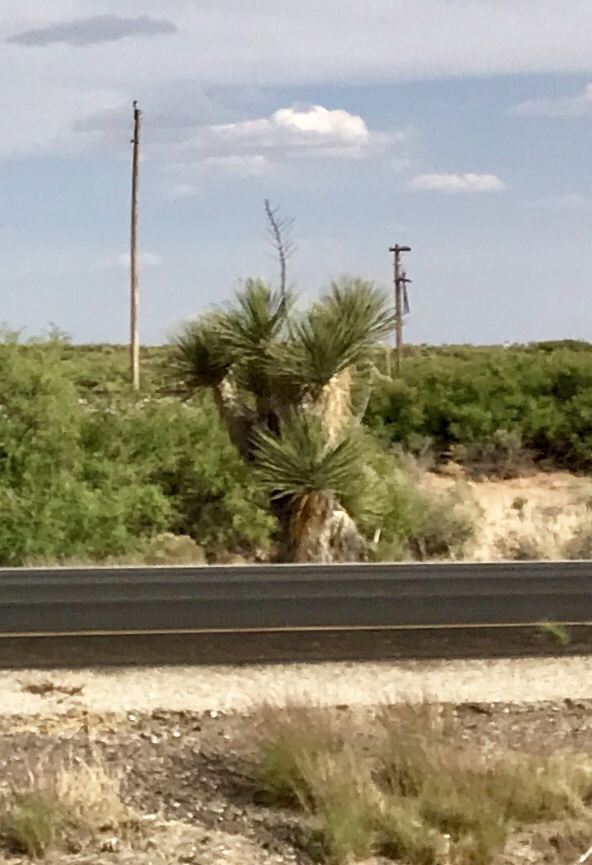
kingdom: Plantae
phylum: Tracheophyta
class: Liliopsida
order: Asparagales
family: Asparagaceae
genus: Yucca
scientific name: Yucca elata
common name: Palmella
